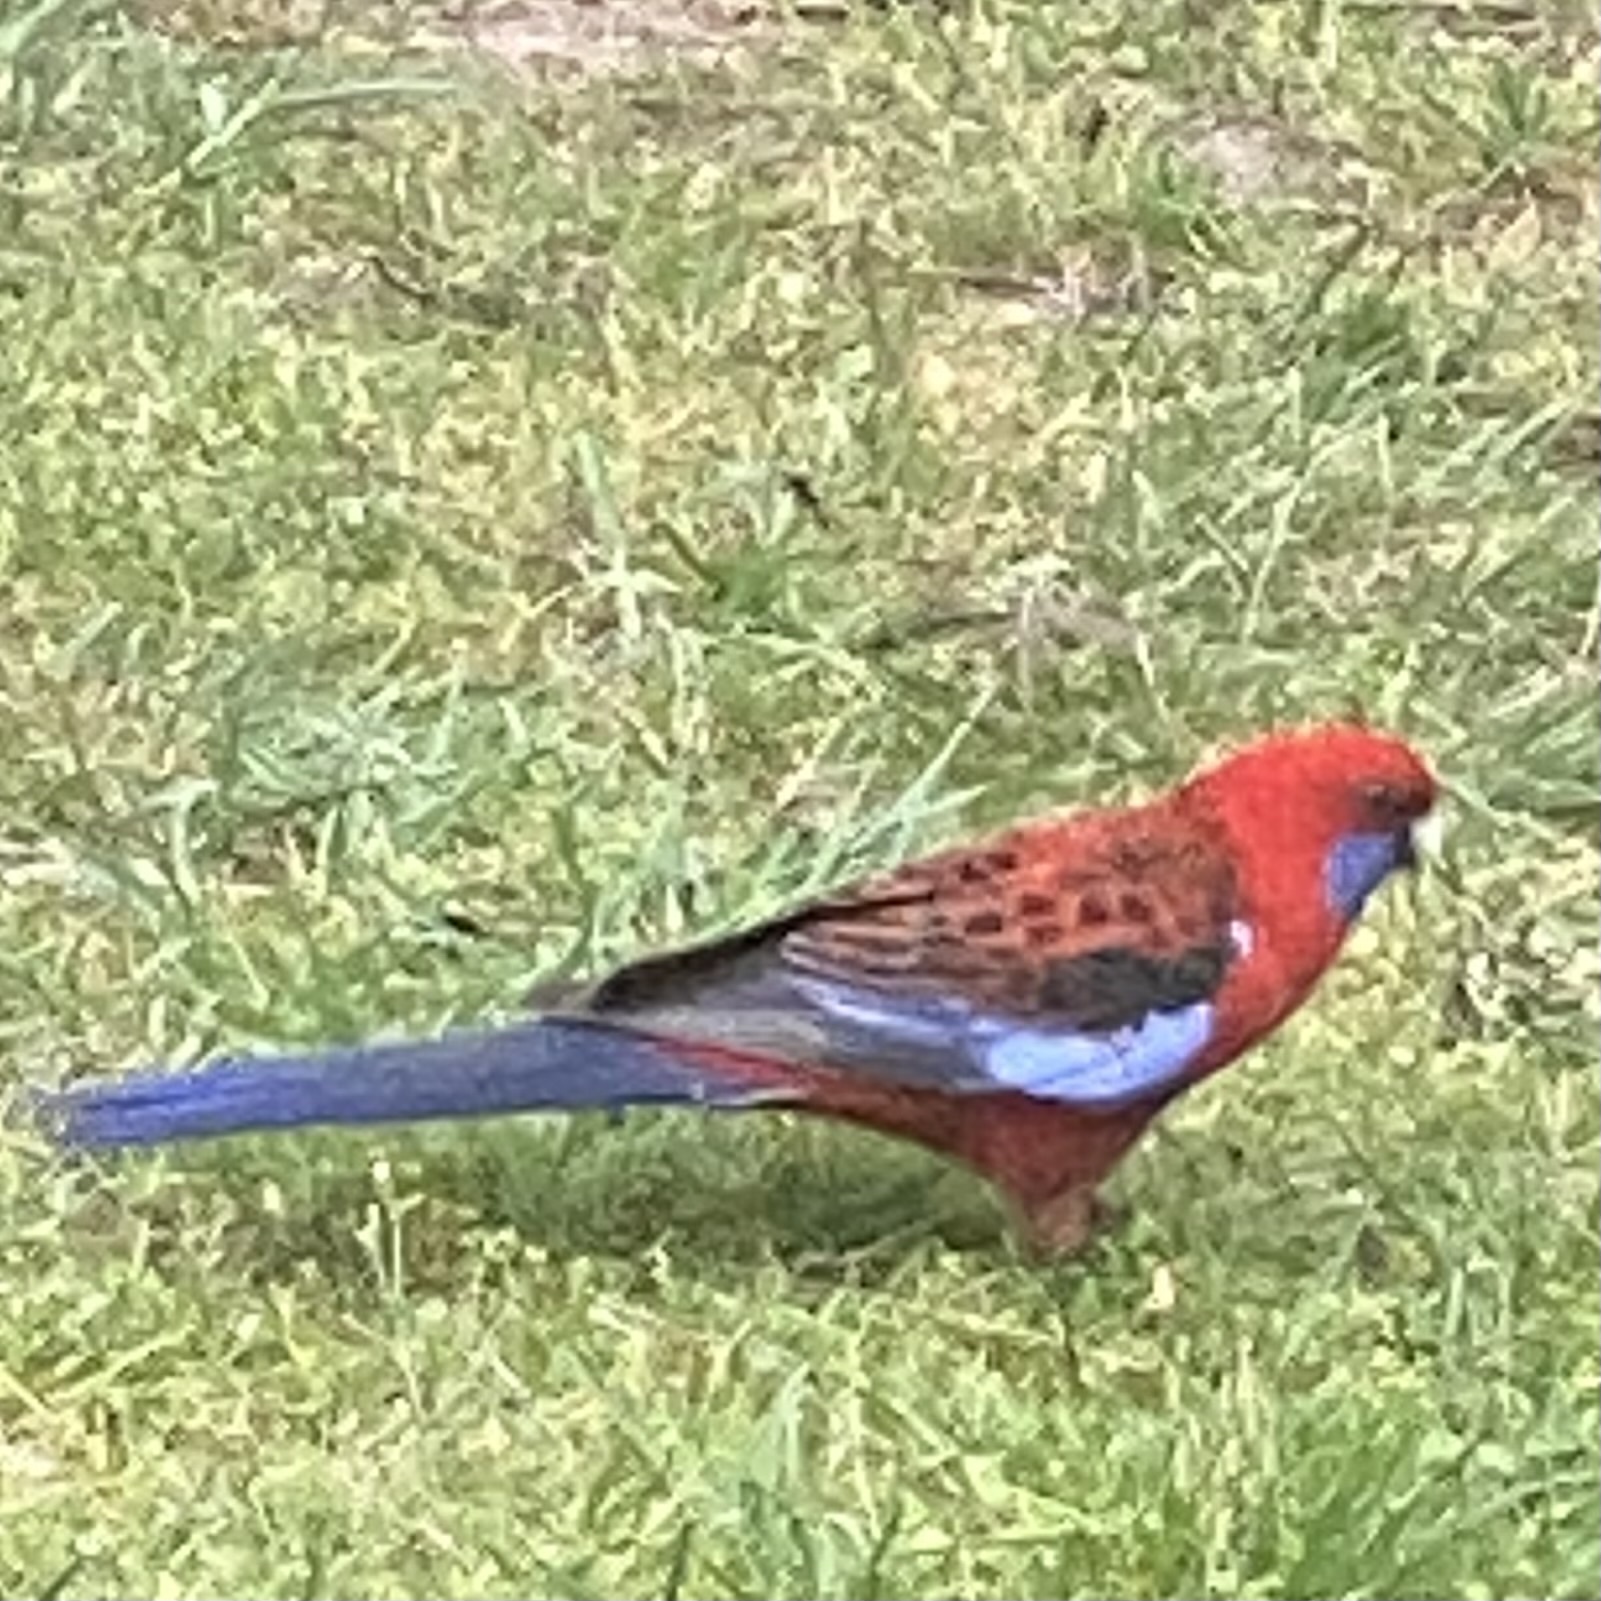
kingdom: Animalia
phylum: Chordata
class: Aves
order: Psittaciformes
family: Psittacidae
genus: Platycercus
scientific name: Platycercus elegans
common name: Crimson rosella
